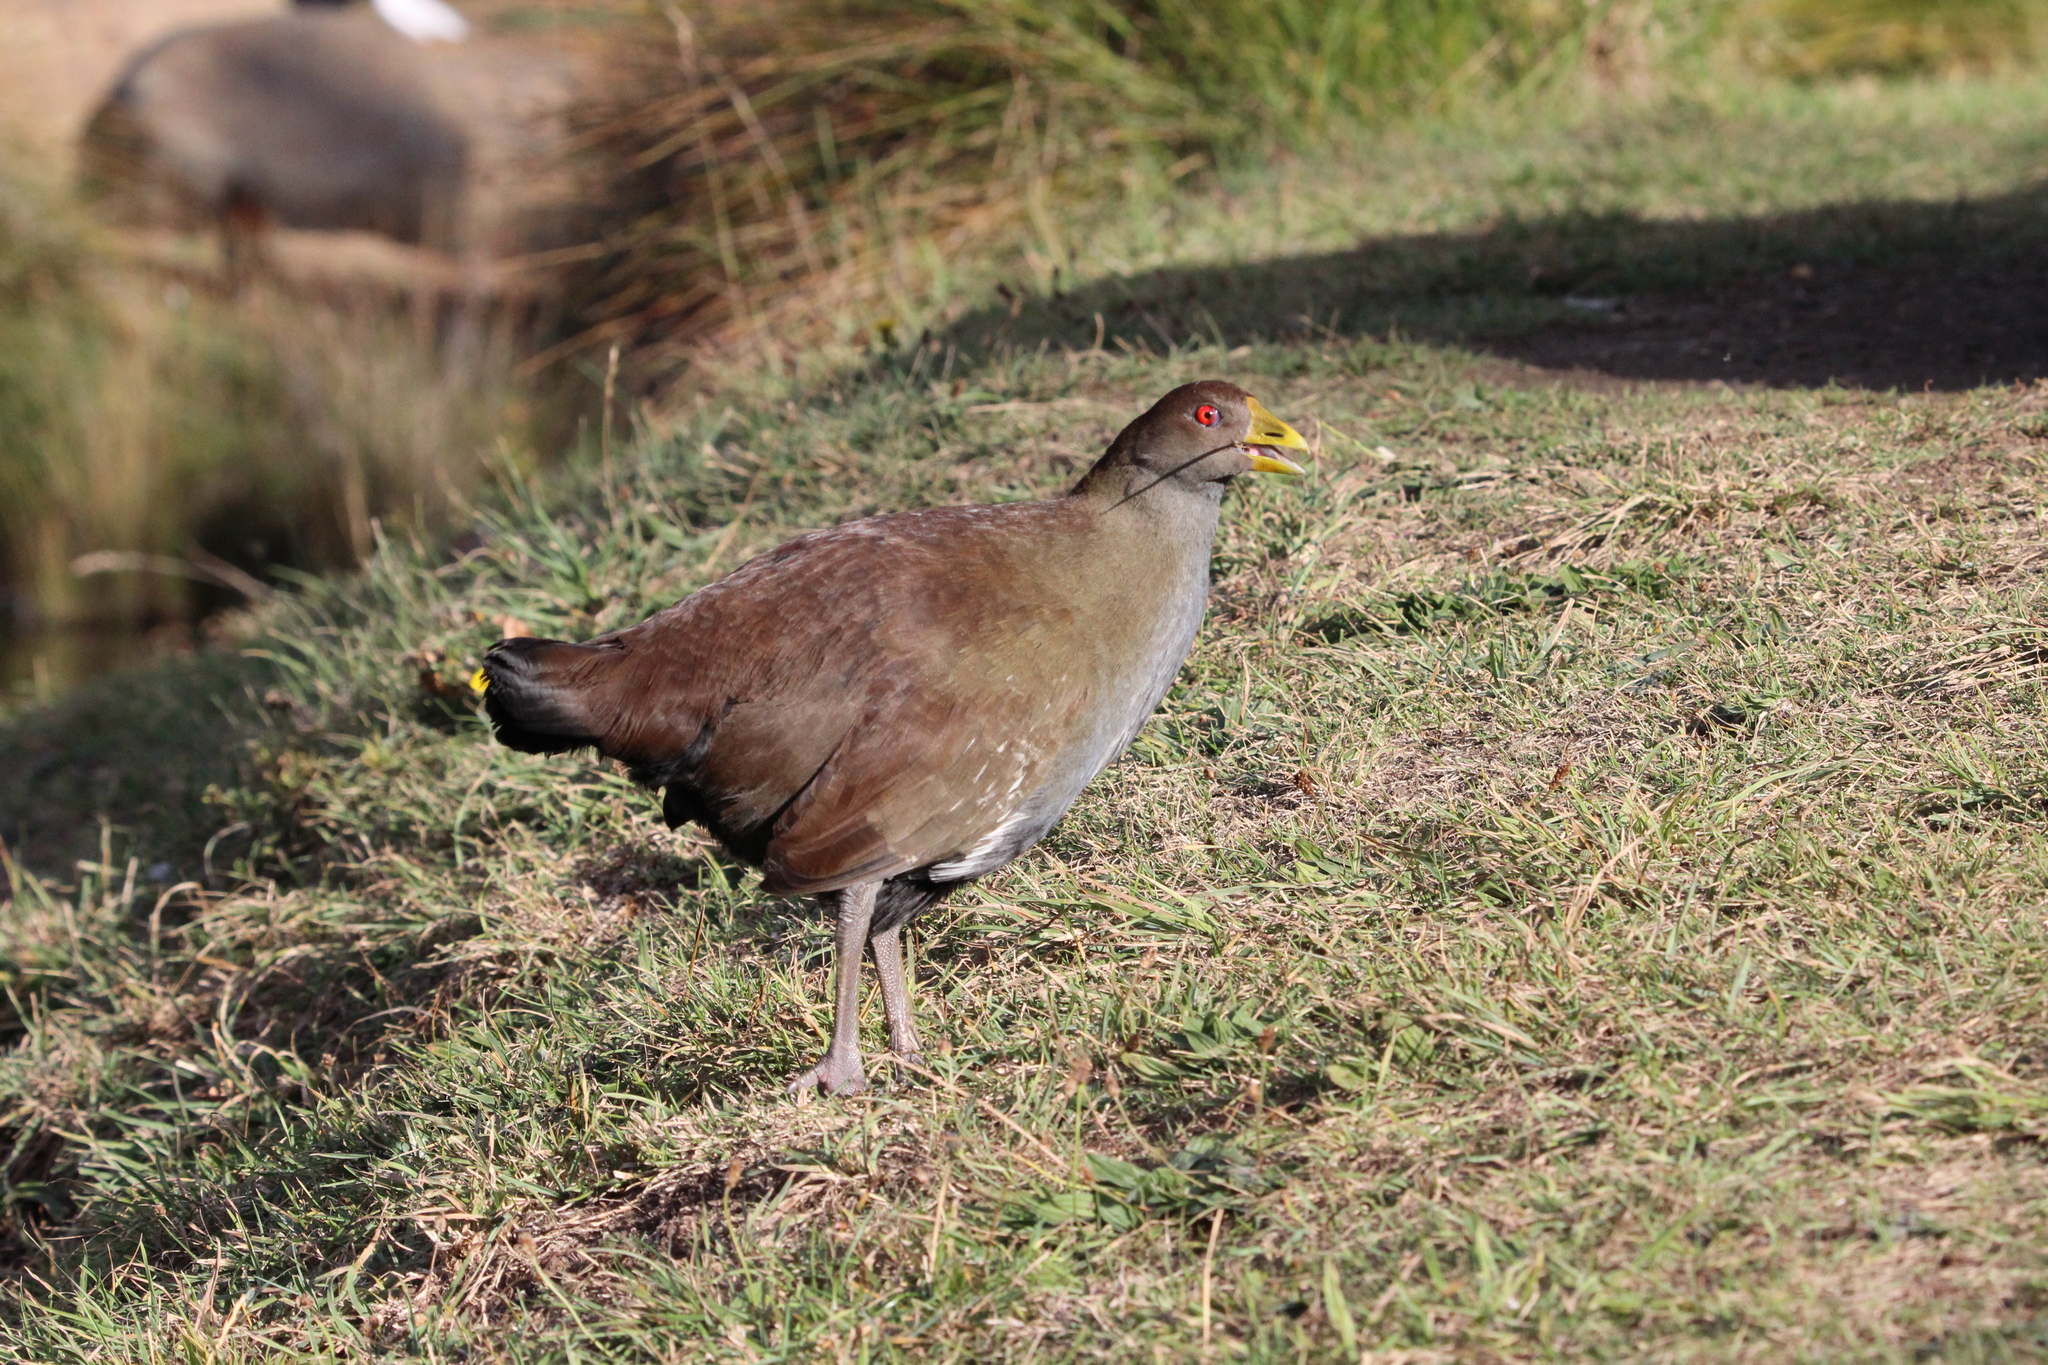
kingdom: Animalia
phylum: Chordata
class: Aves
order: Gruiformes
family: Rallidae
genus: Gallinula
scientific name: Gallinula mortierii
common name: Tasmanian nativehen
